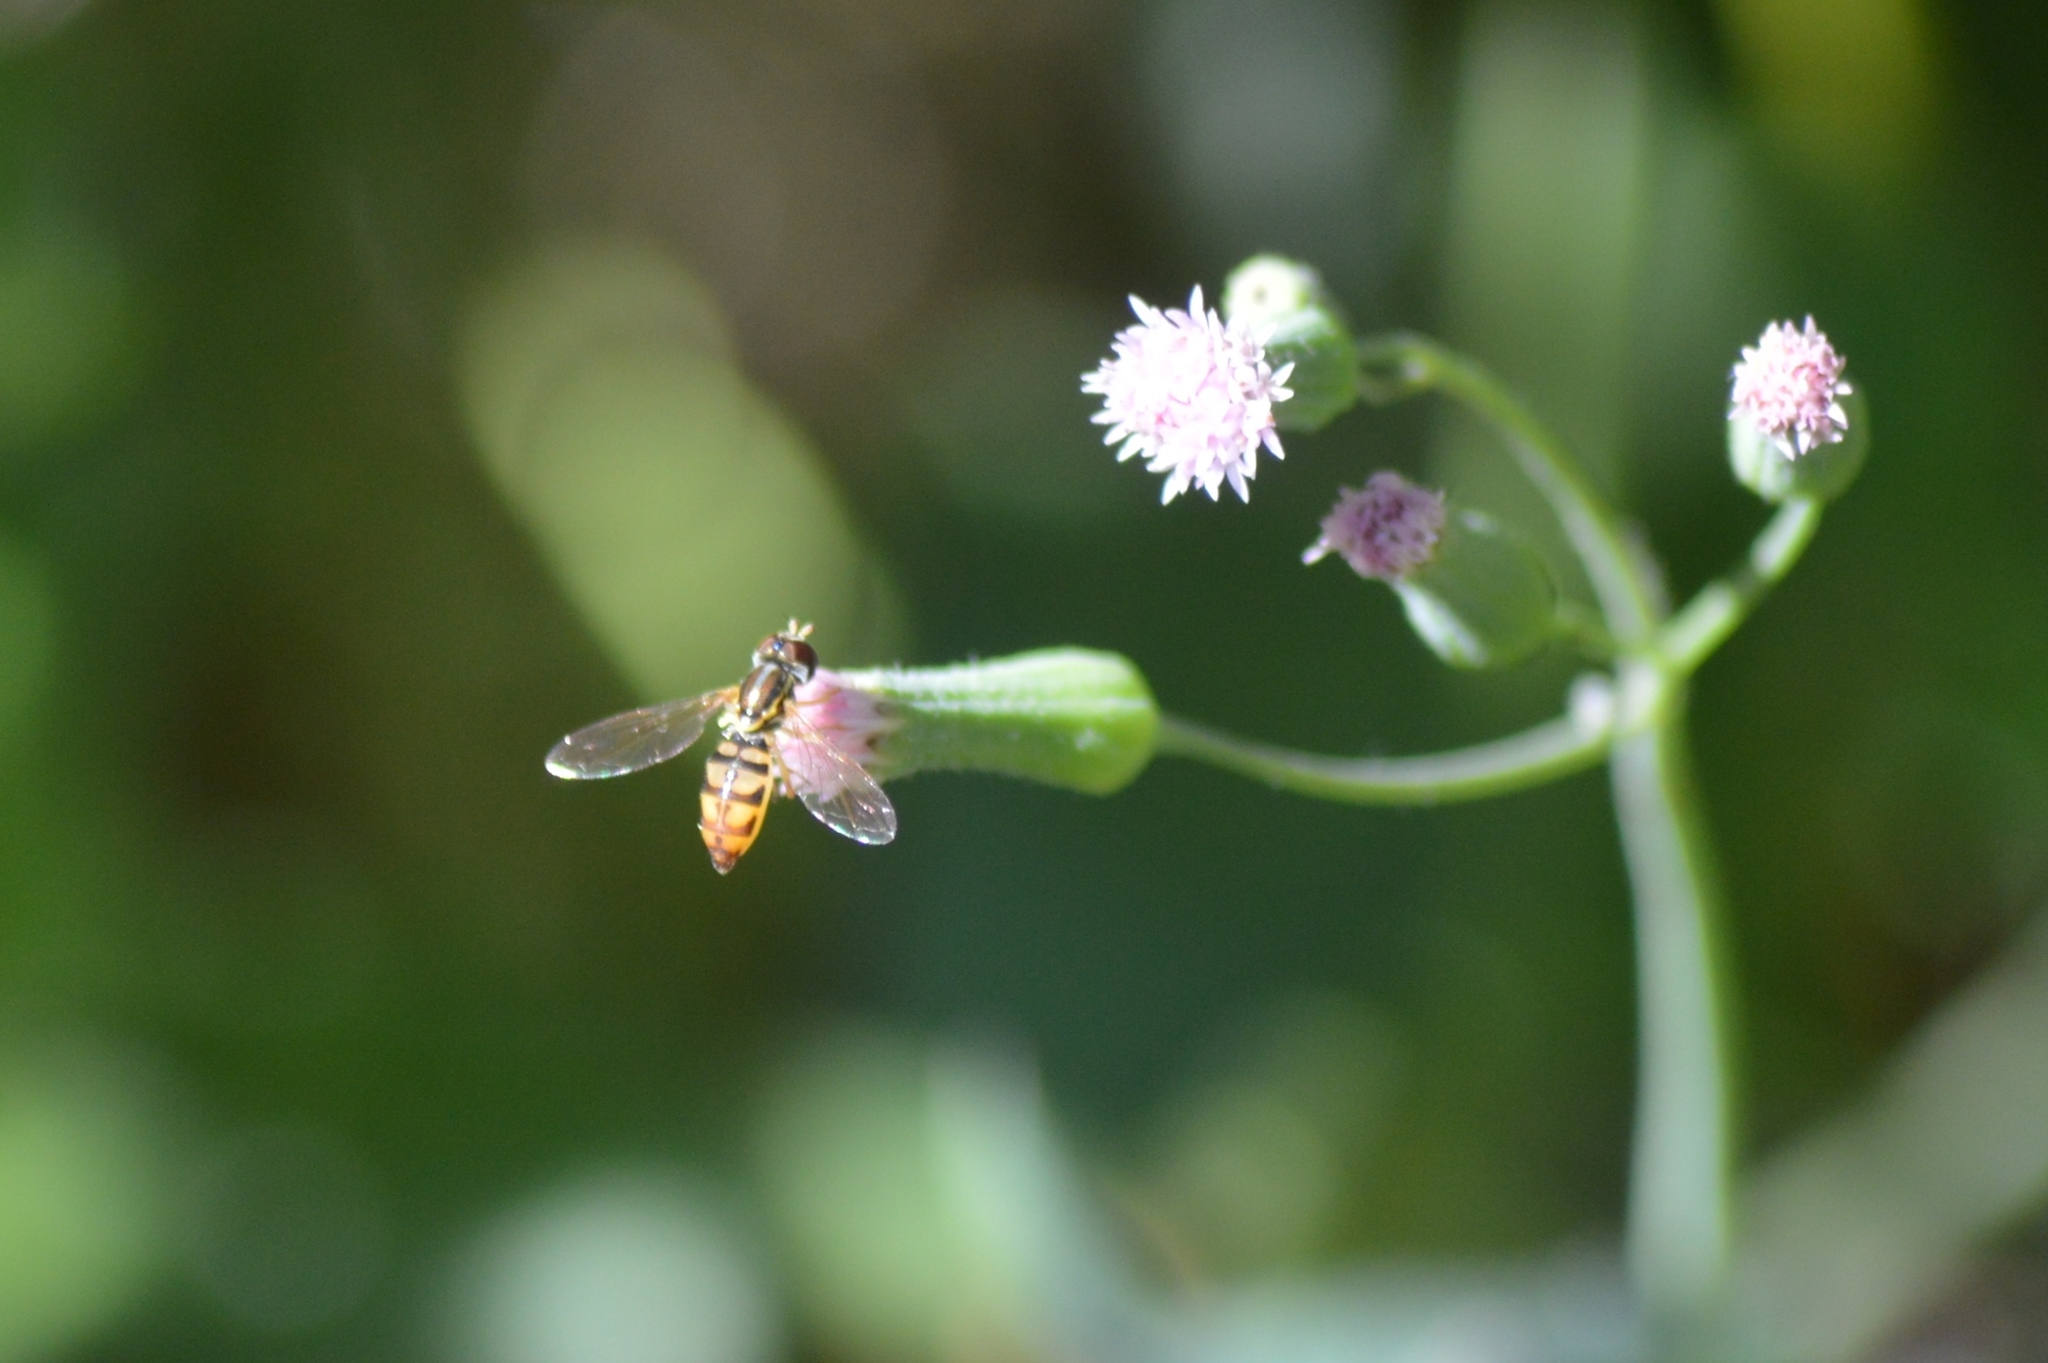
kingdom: Animalia
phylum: Arthropoda
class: Insecta
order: Diptera
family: Syrphidae
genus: Toxomerus
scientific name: Toxomerus
